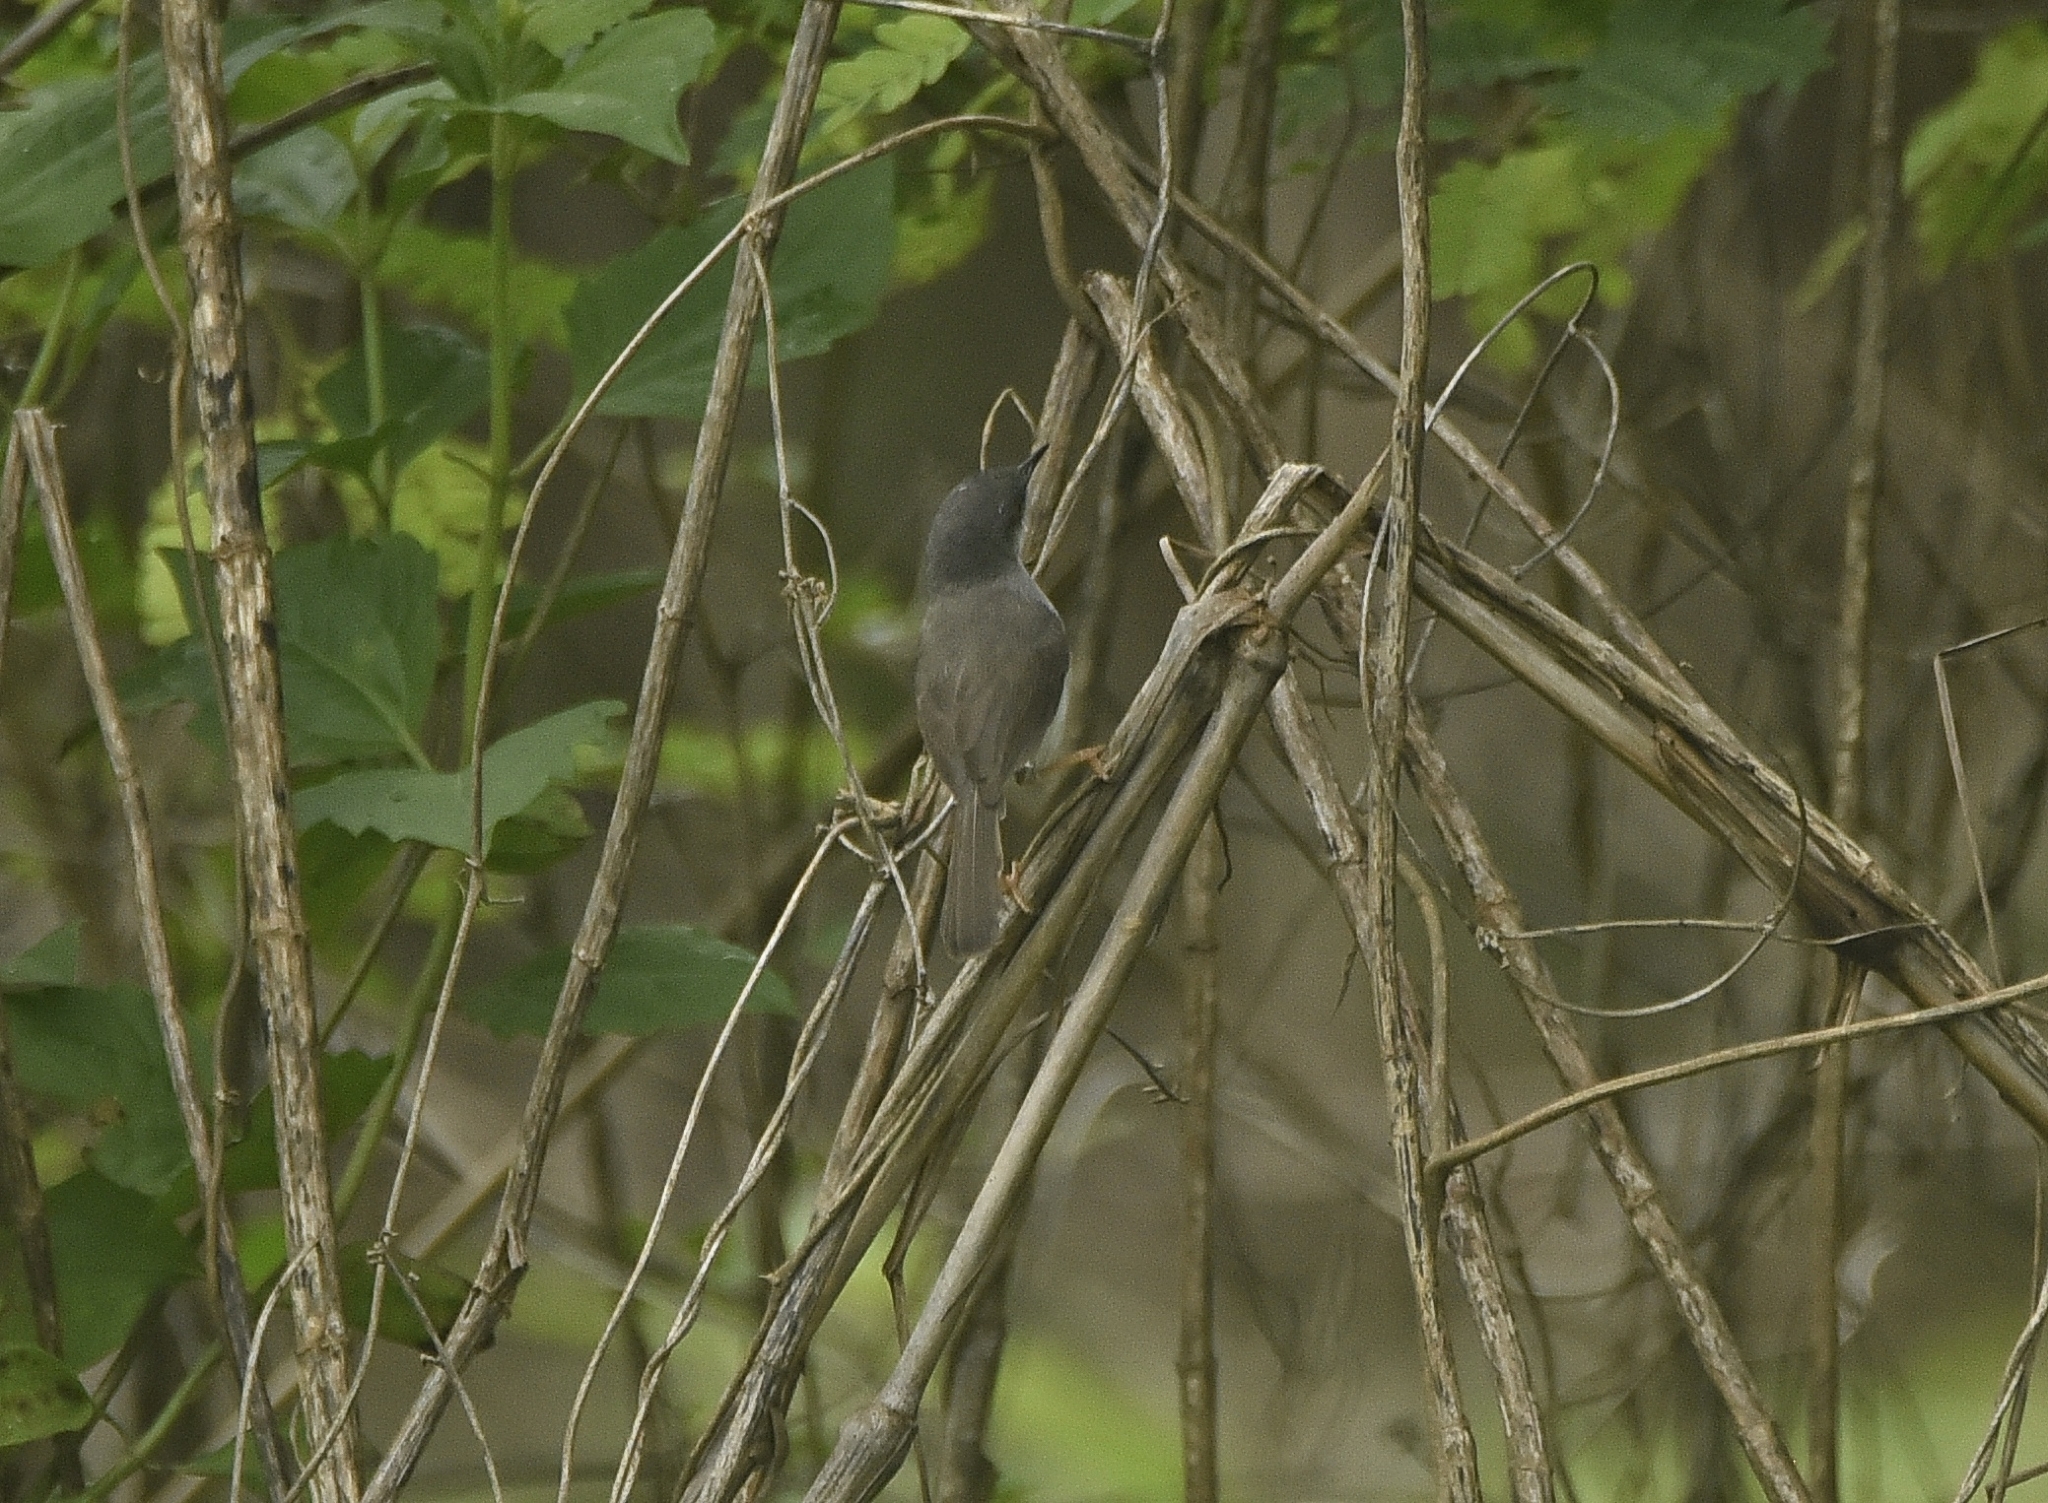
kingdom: Animalia
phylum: Chordata
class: Aves
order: Passeriformes
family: Cisticolidae
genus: Prinia
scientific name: Prinia hodgsonii
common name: Grey-breasted prinia
